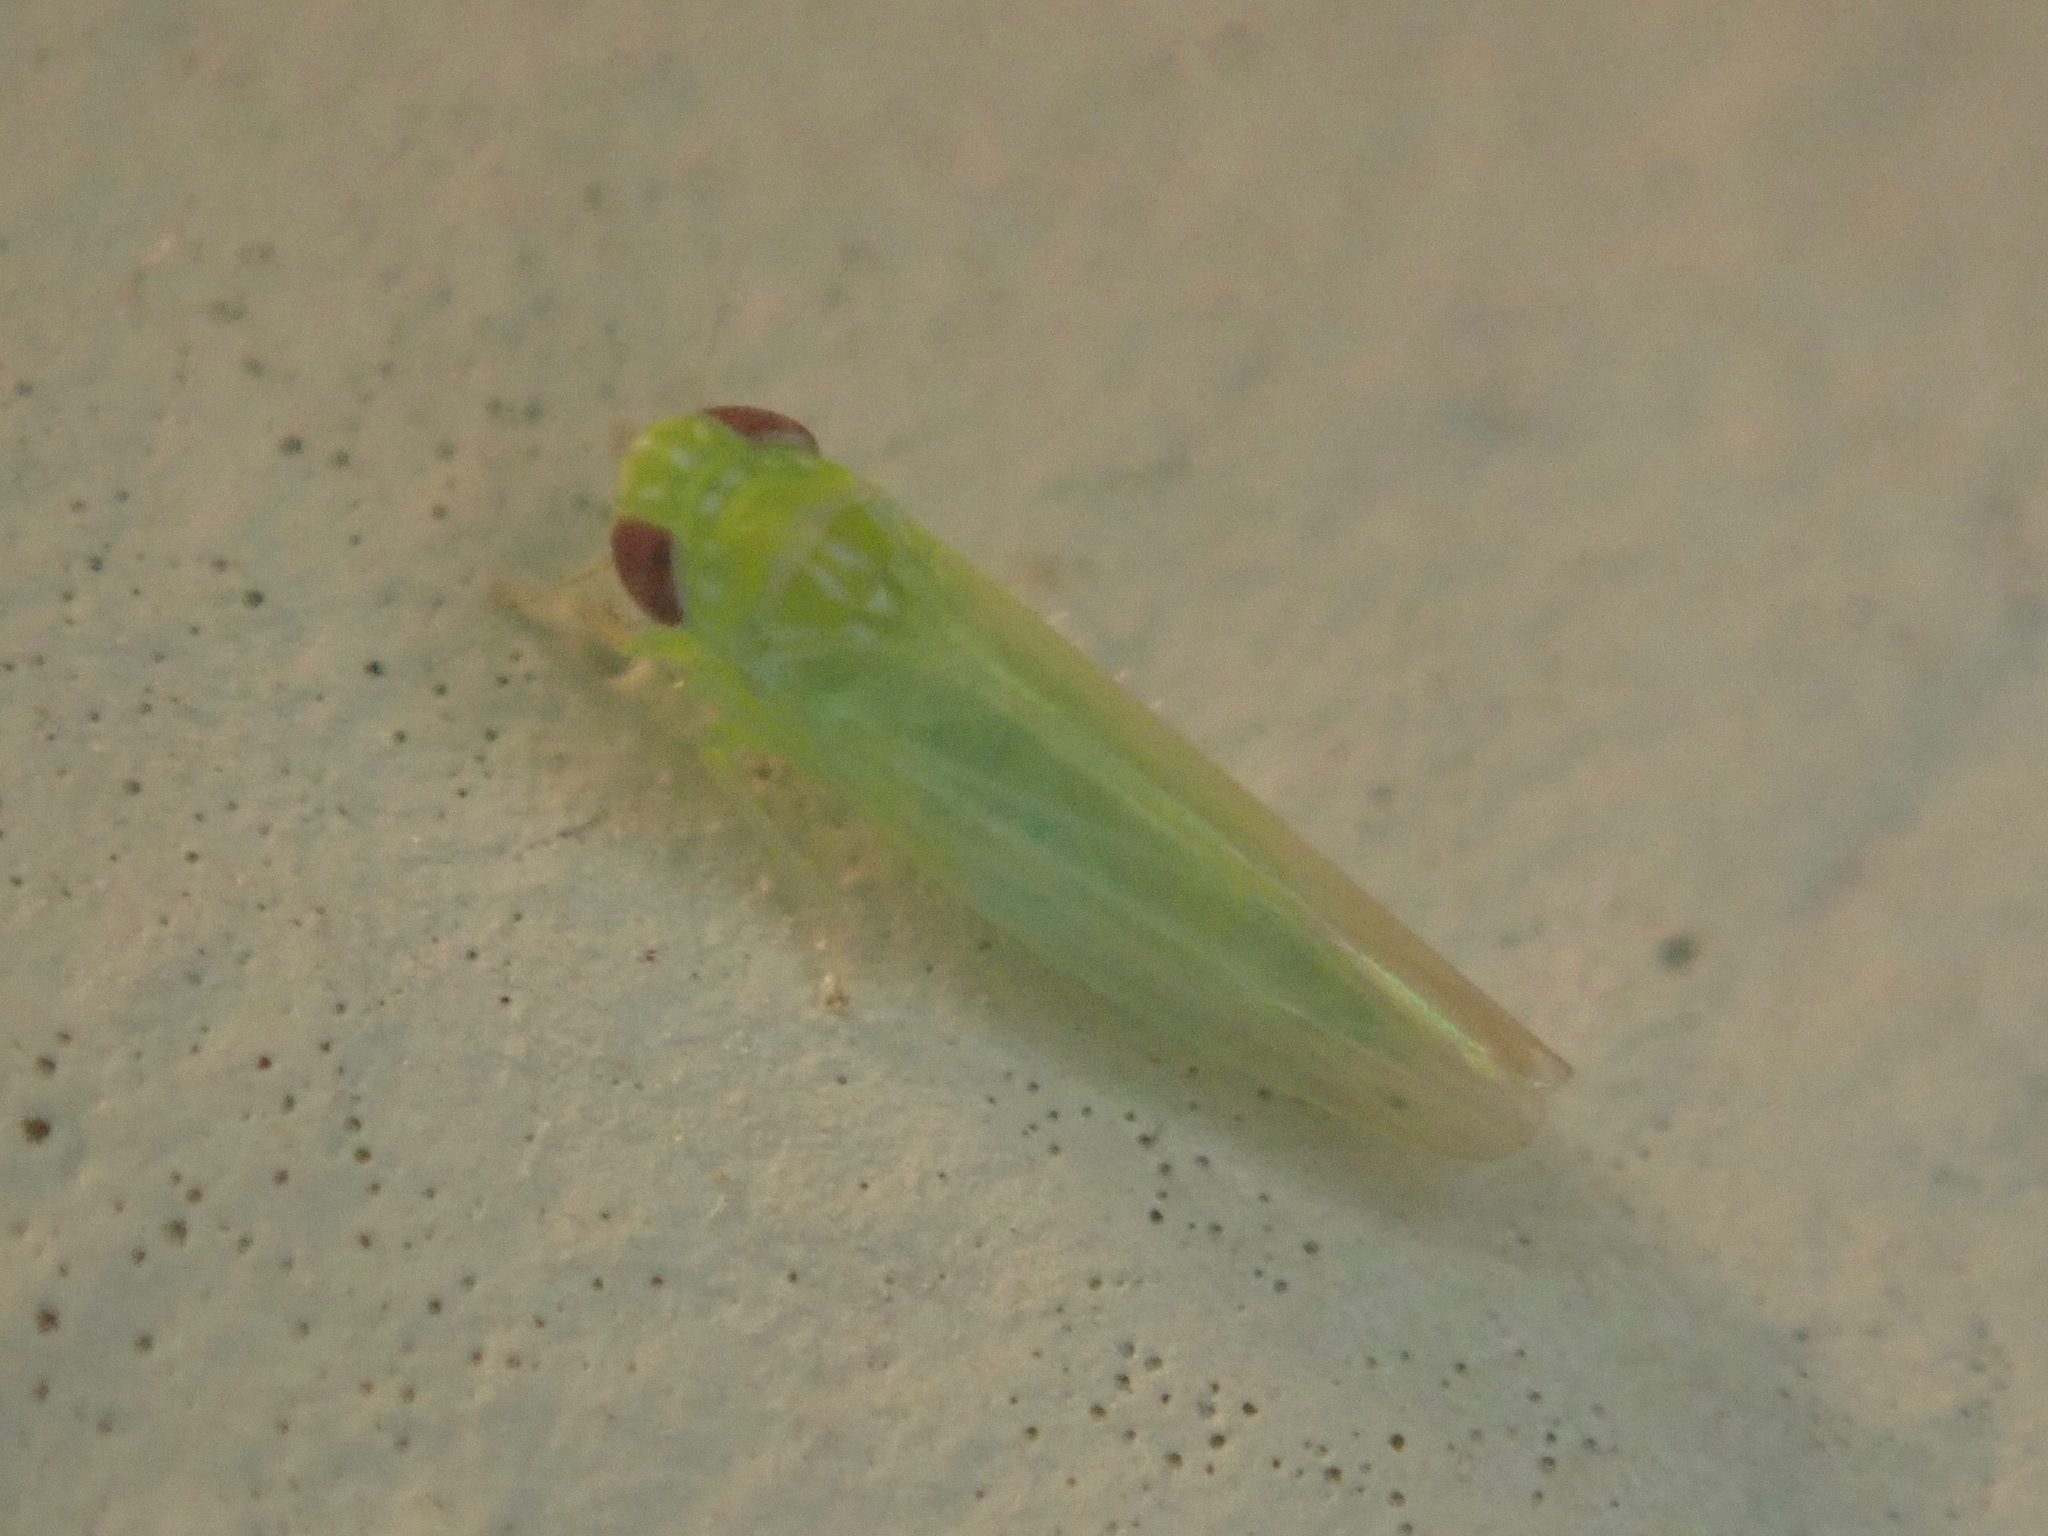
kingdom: Animalia
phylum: Arthropoda
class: Insecta
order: Hemiptera
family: Cicadellidae
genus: Empoasca
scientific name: Empoasca fabae
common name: Potato leafhopper
